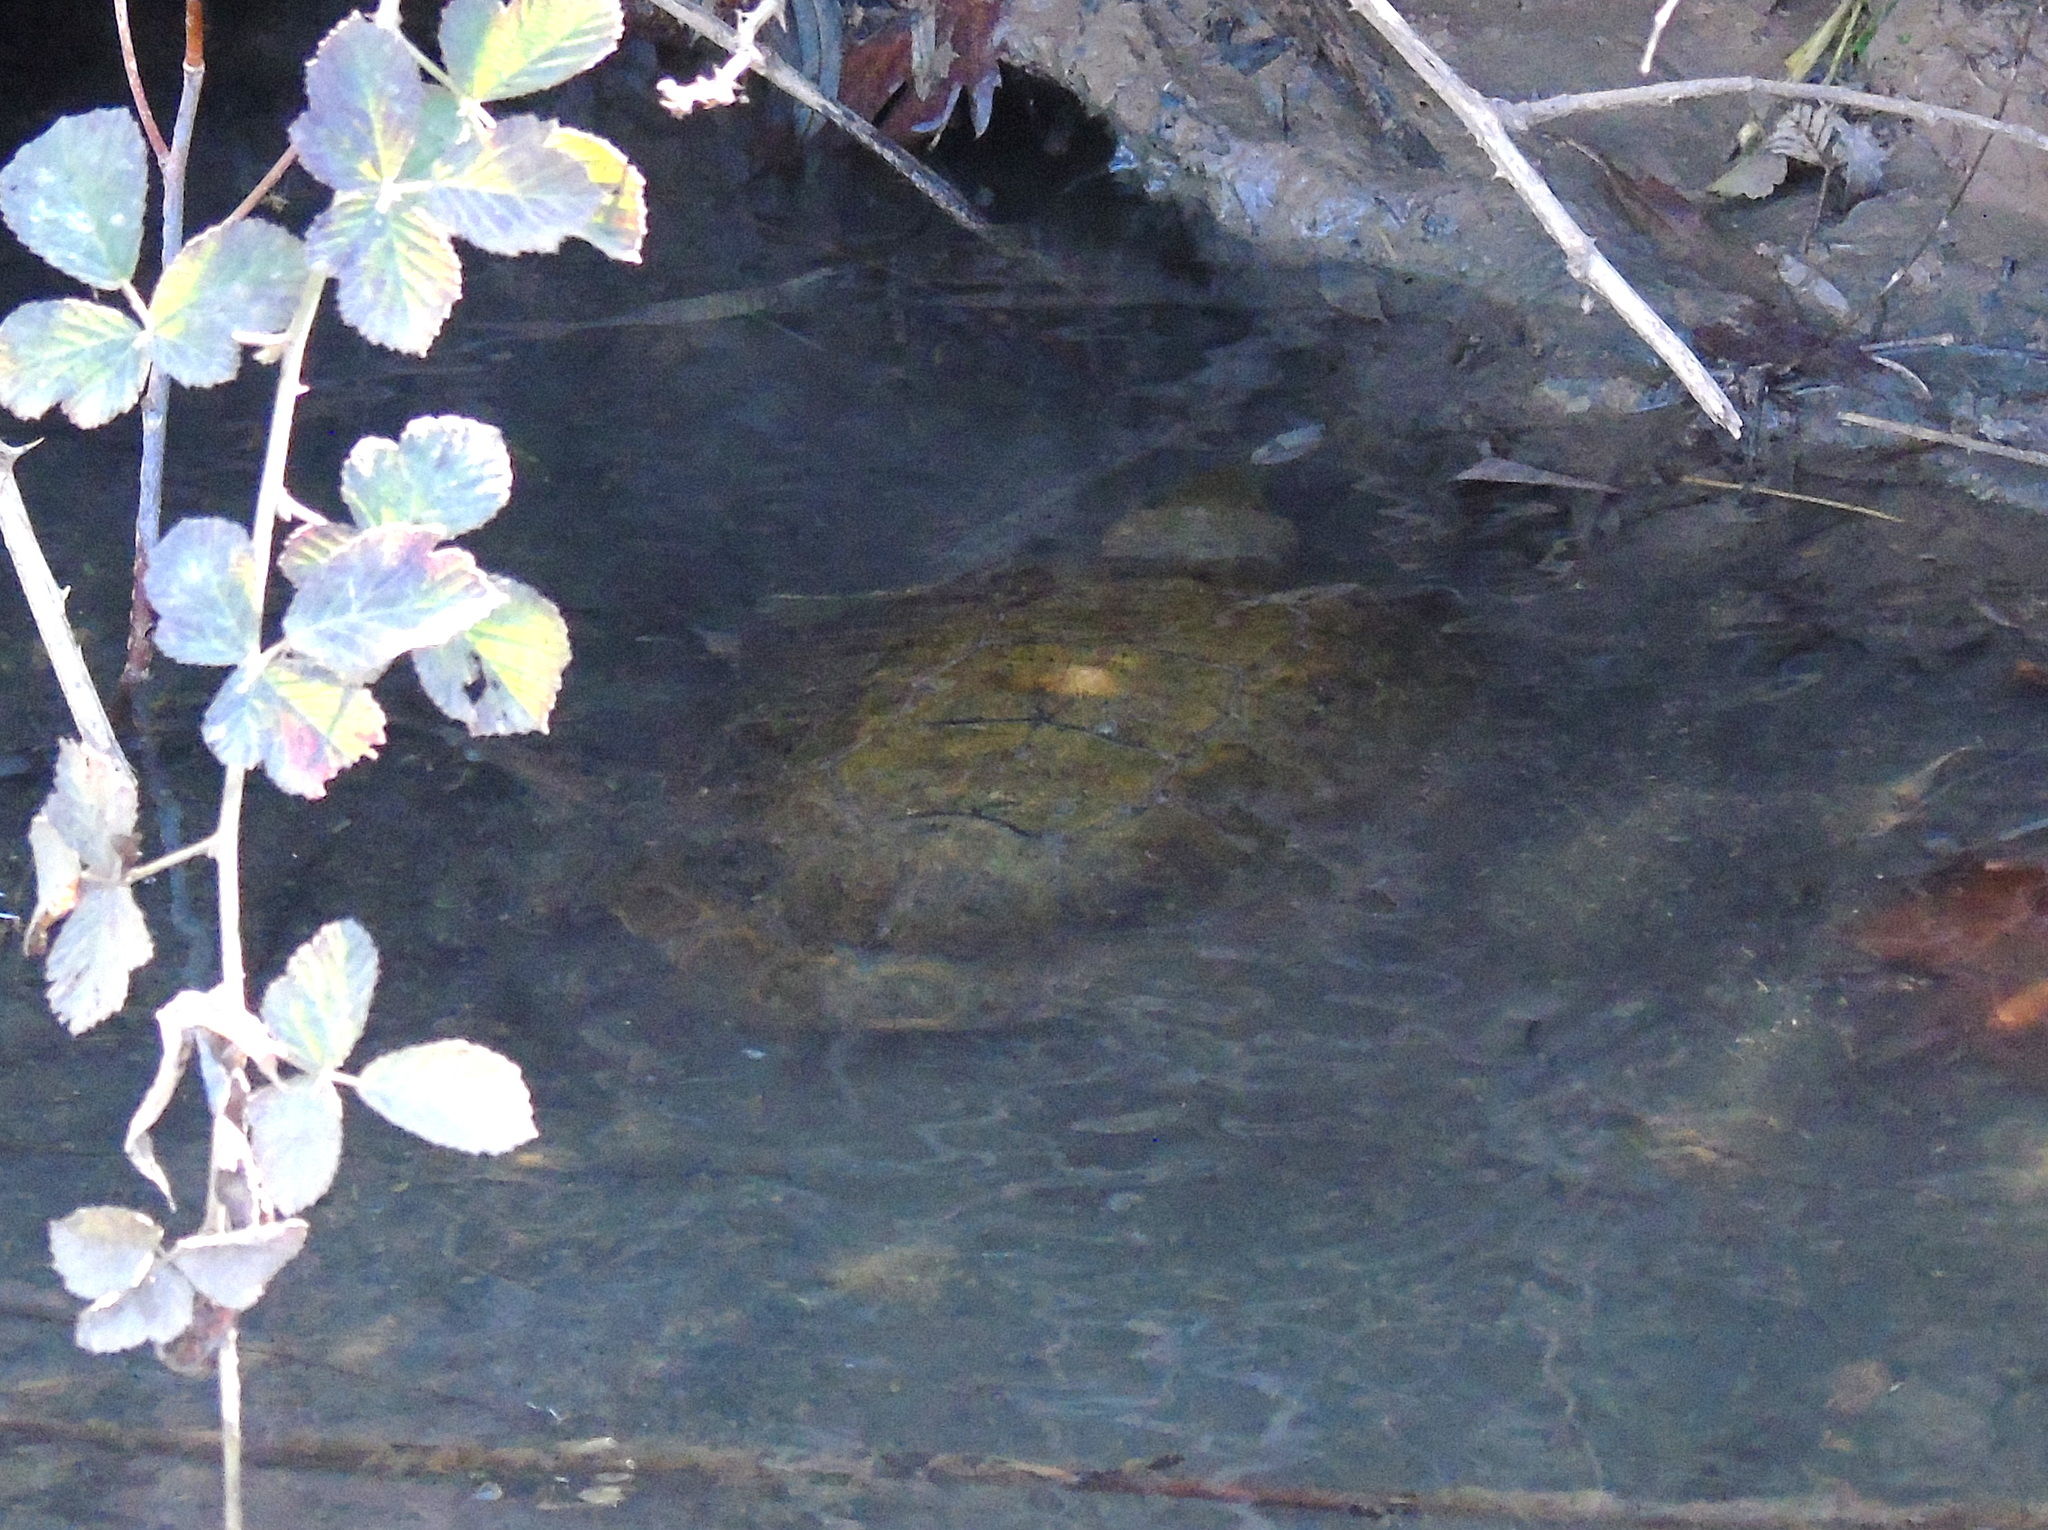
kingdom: Animalia
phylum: Chordata
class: Testudines
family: Geoemydidae
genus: Mauremys
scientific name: Mauremys caspica
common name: Caspian turtle
